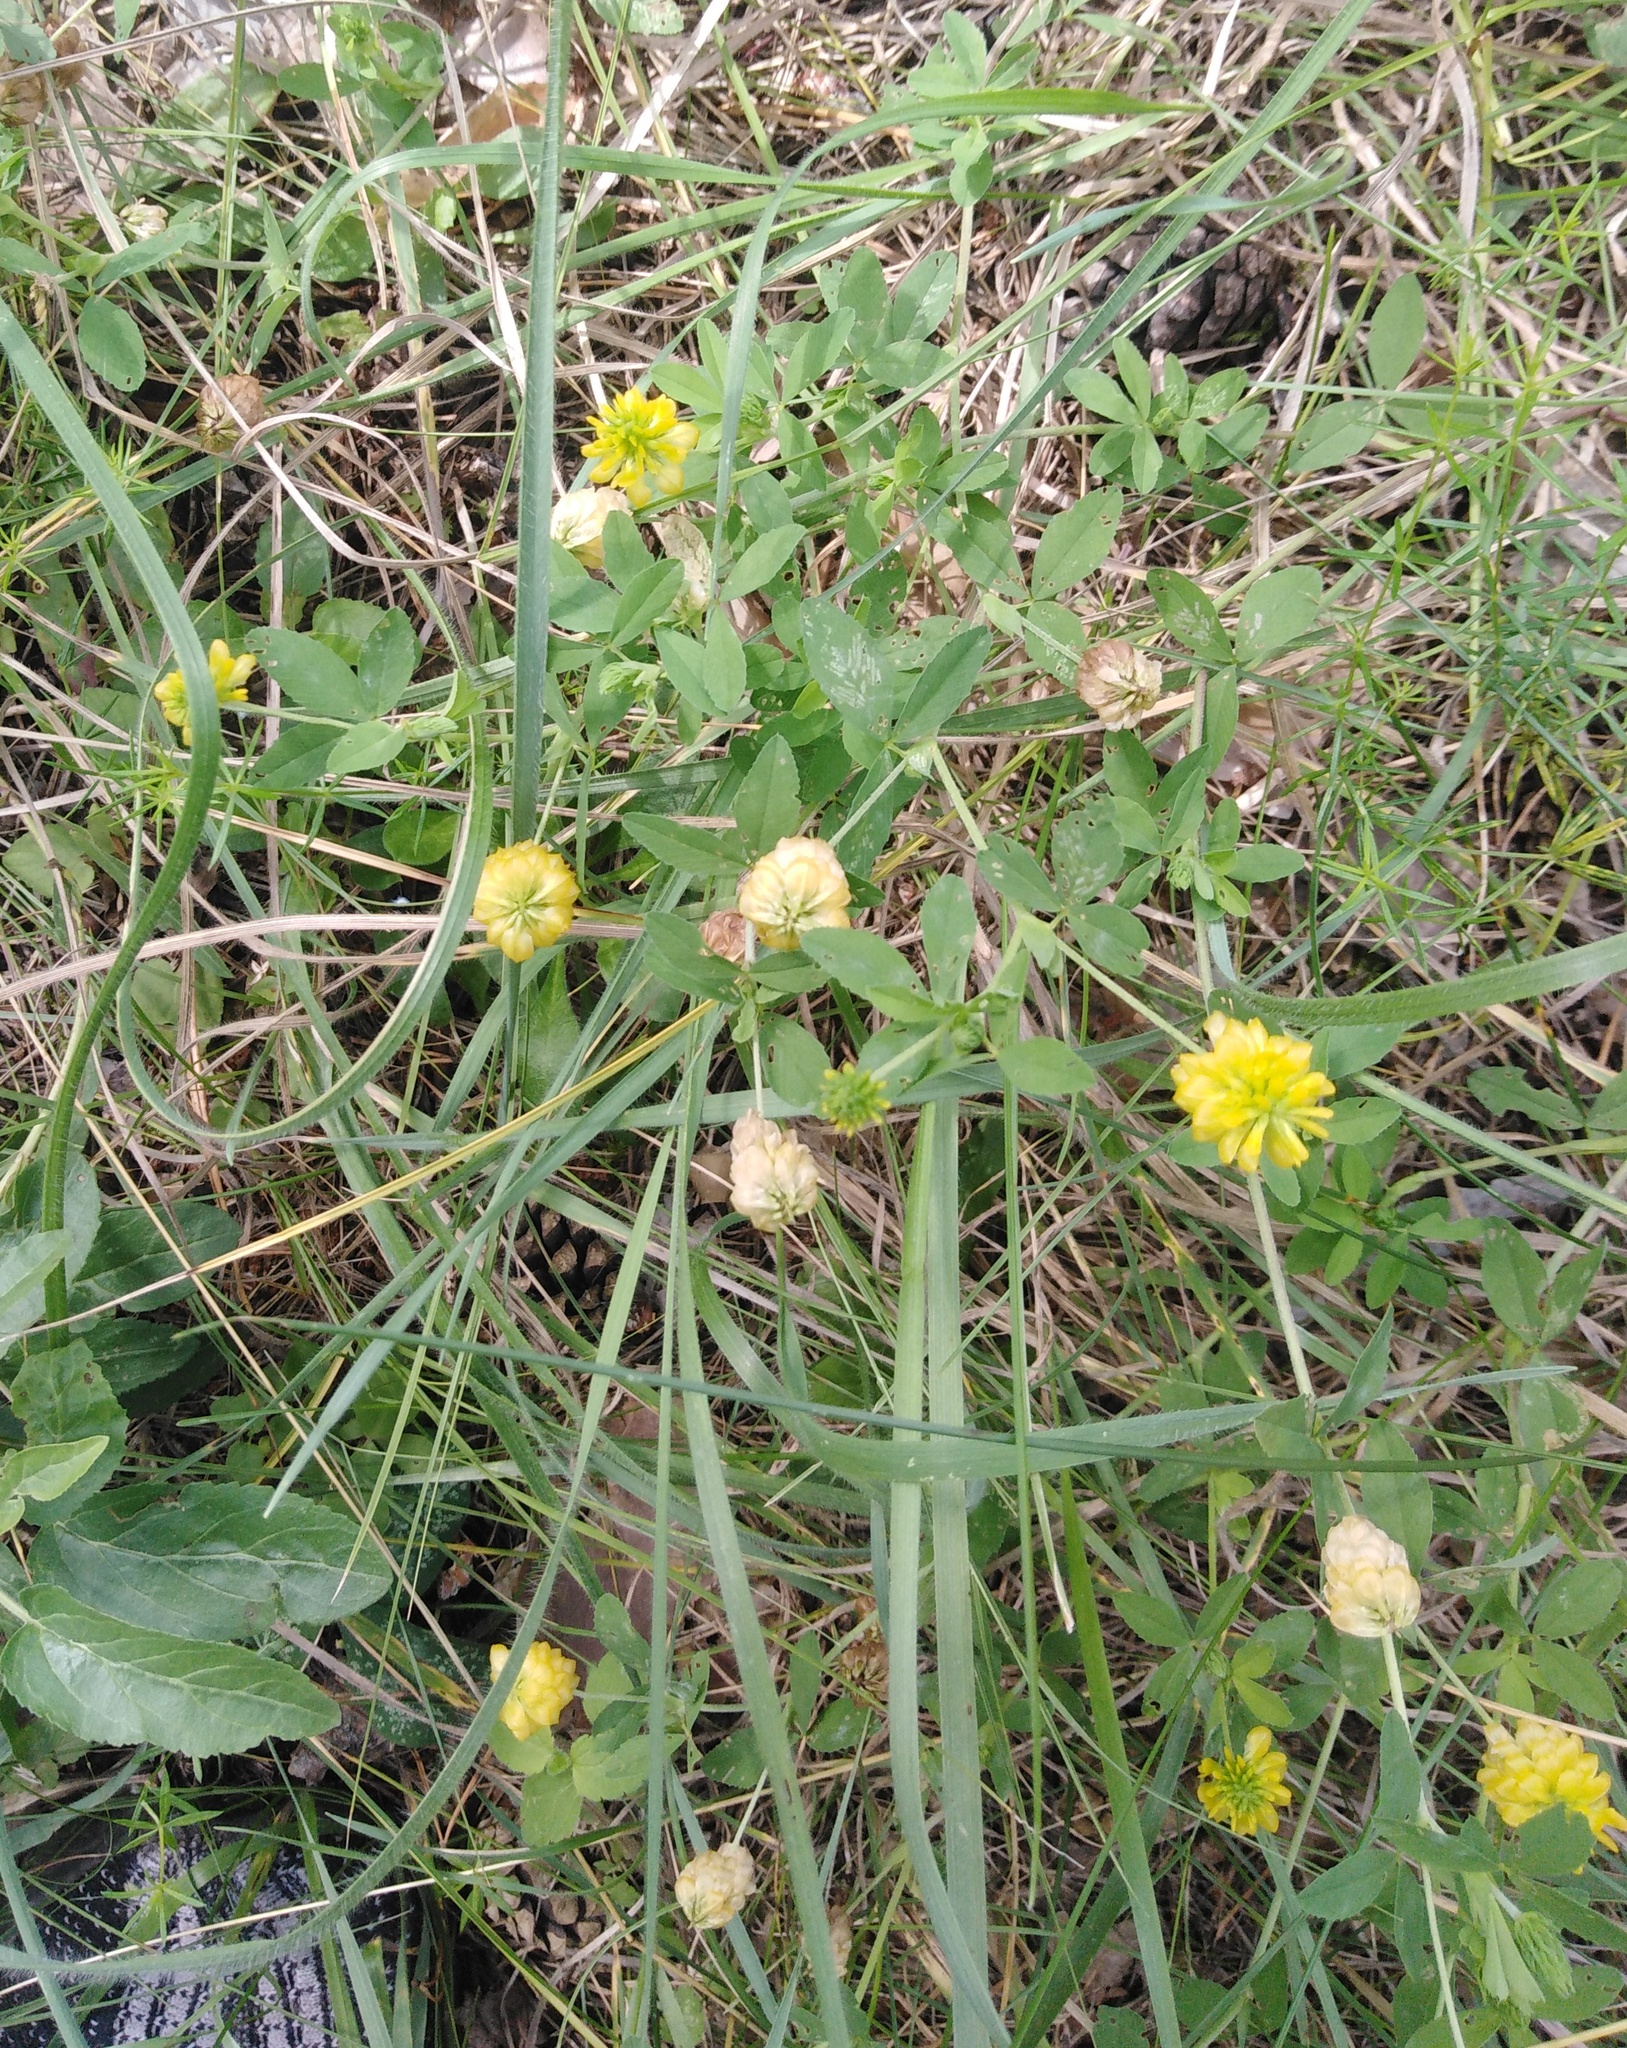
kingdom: Plantae
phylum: Tracheophyta
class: Magnoliopsida
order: Fabales
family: Fabaceae
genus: Trifolium
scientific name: Trifolium aureum
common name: Golden clover
